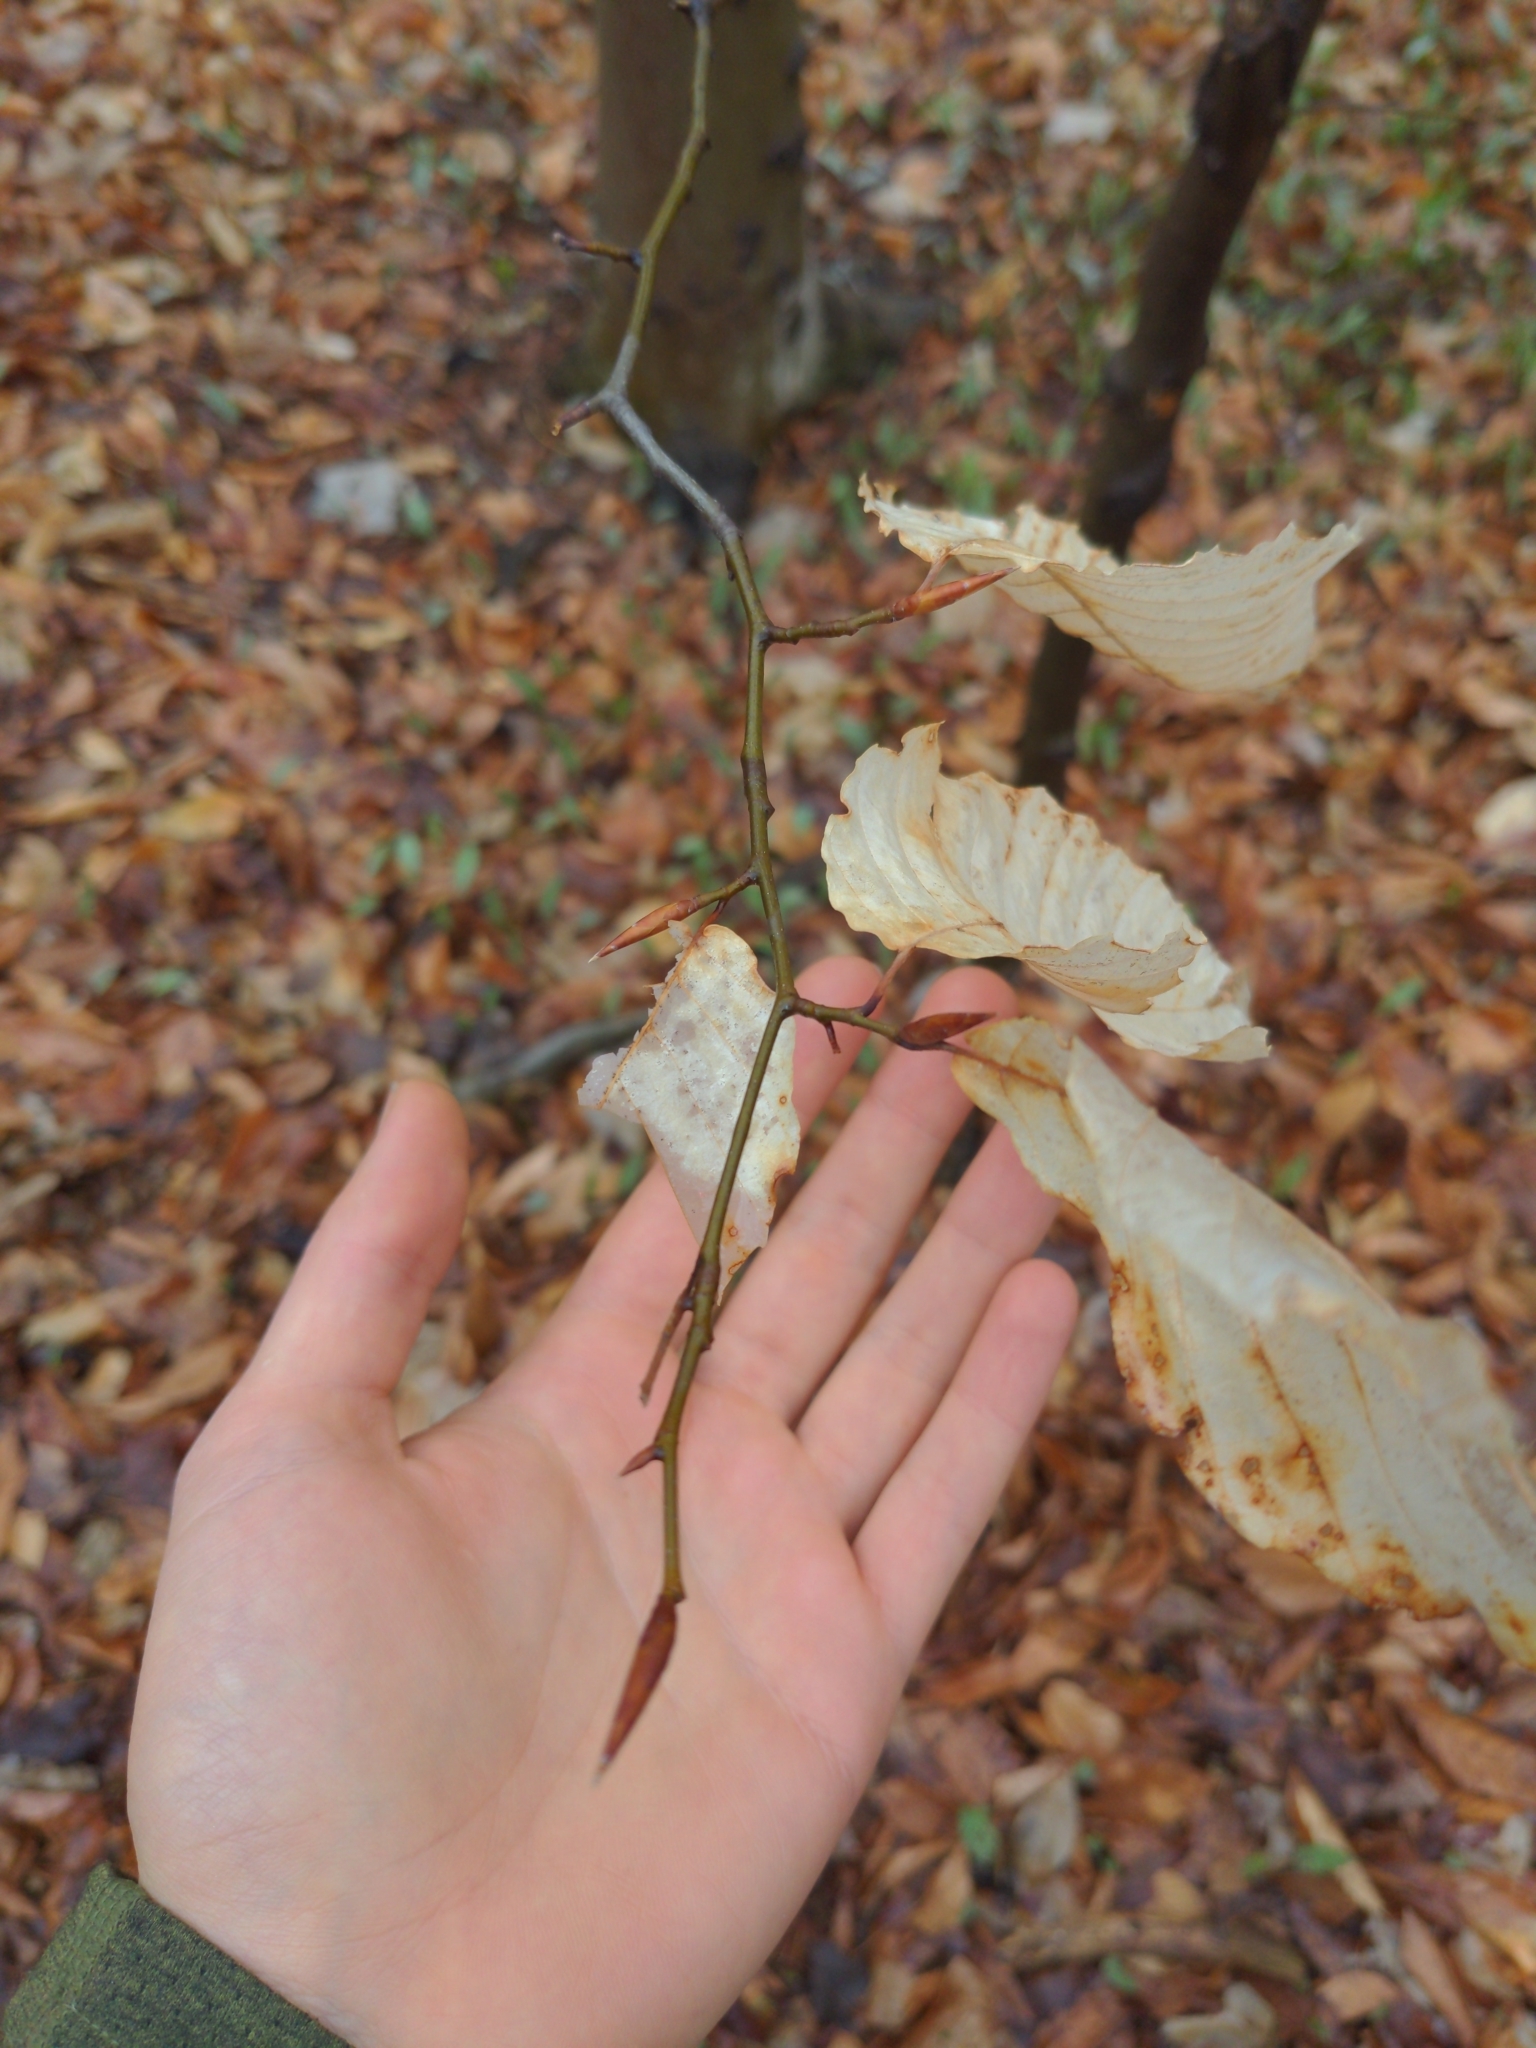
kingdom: Plantae
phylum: Tracheophyta
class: Magnoliopsida
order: Fagales
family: Fagaceae
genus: Fagus
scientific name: Fagus grandifolia
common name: American beech
